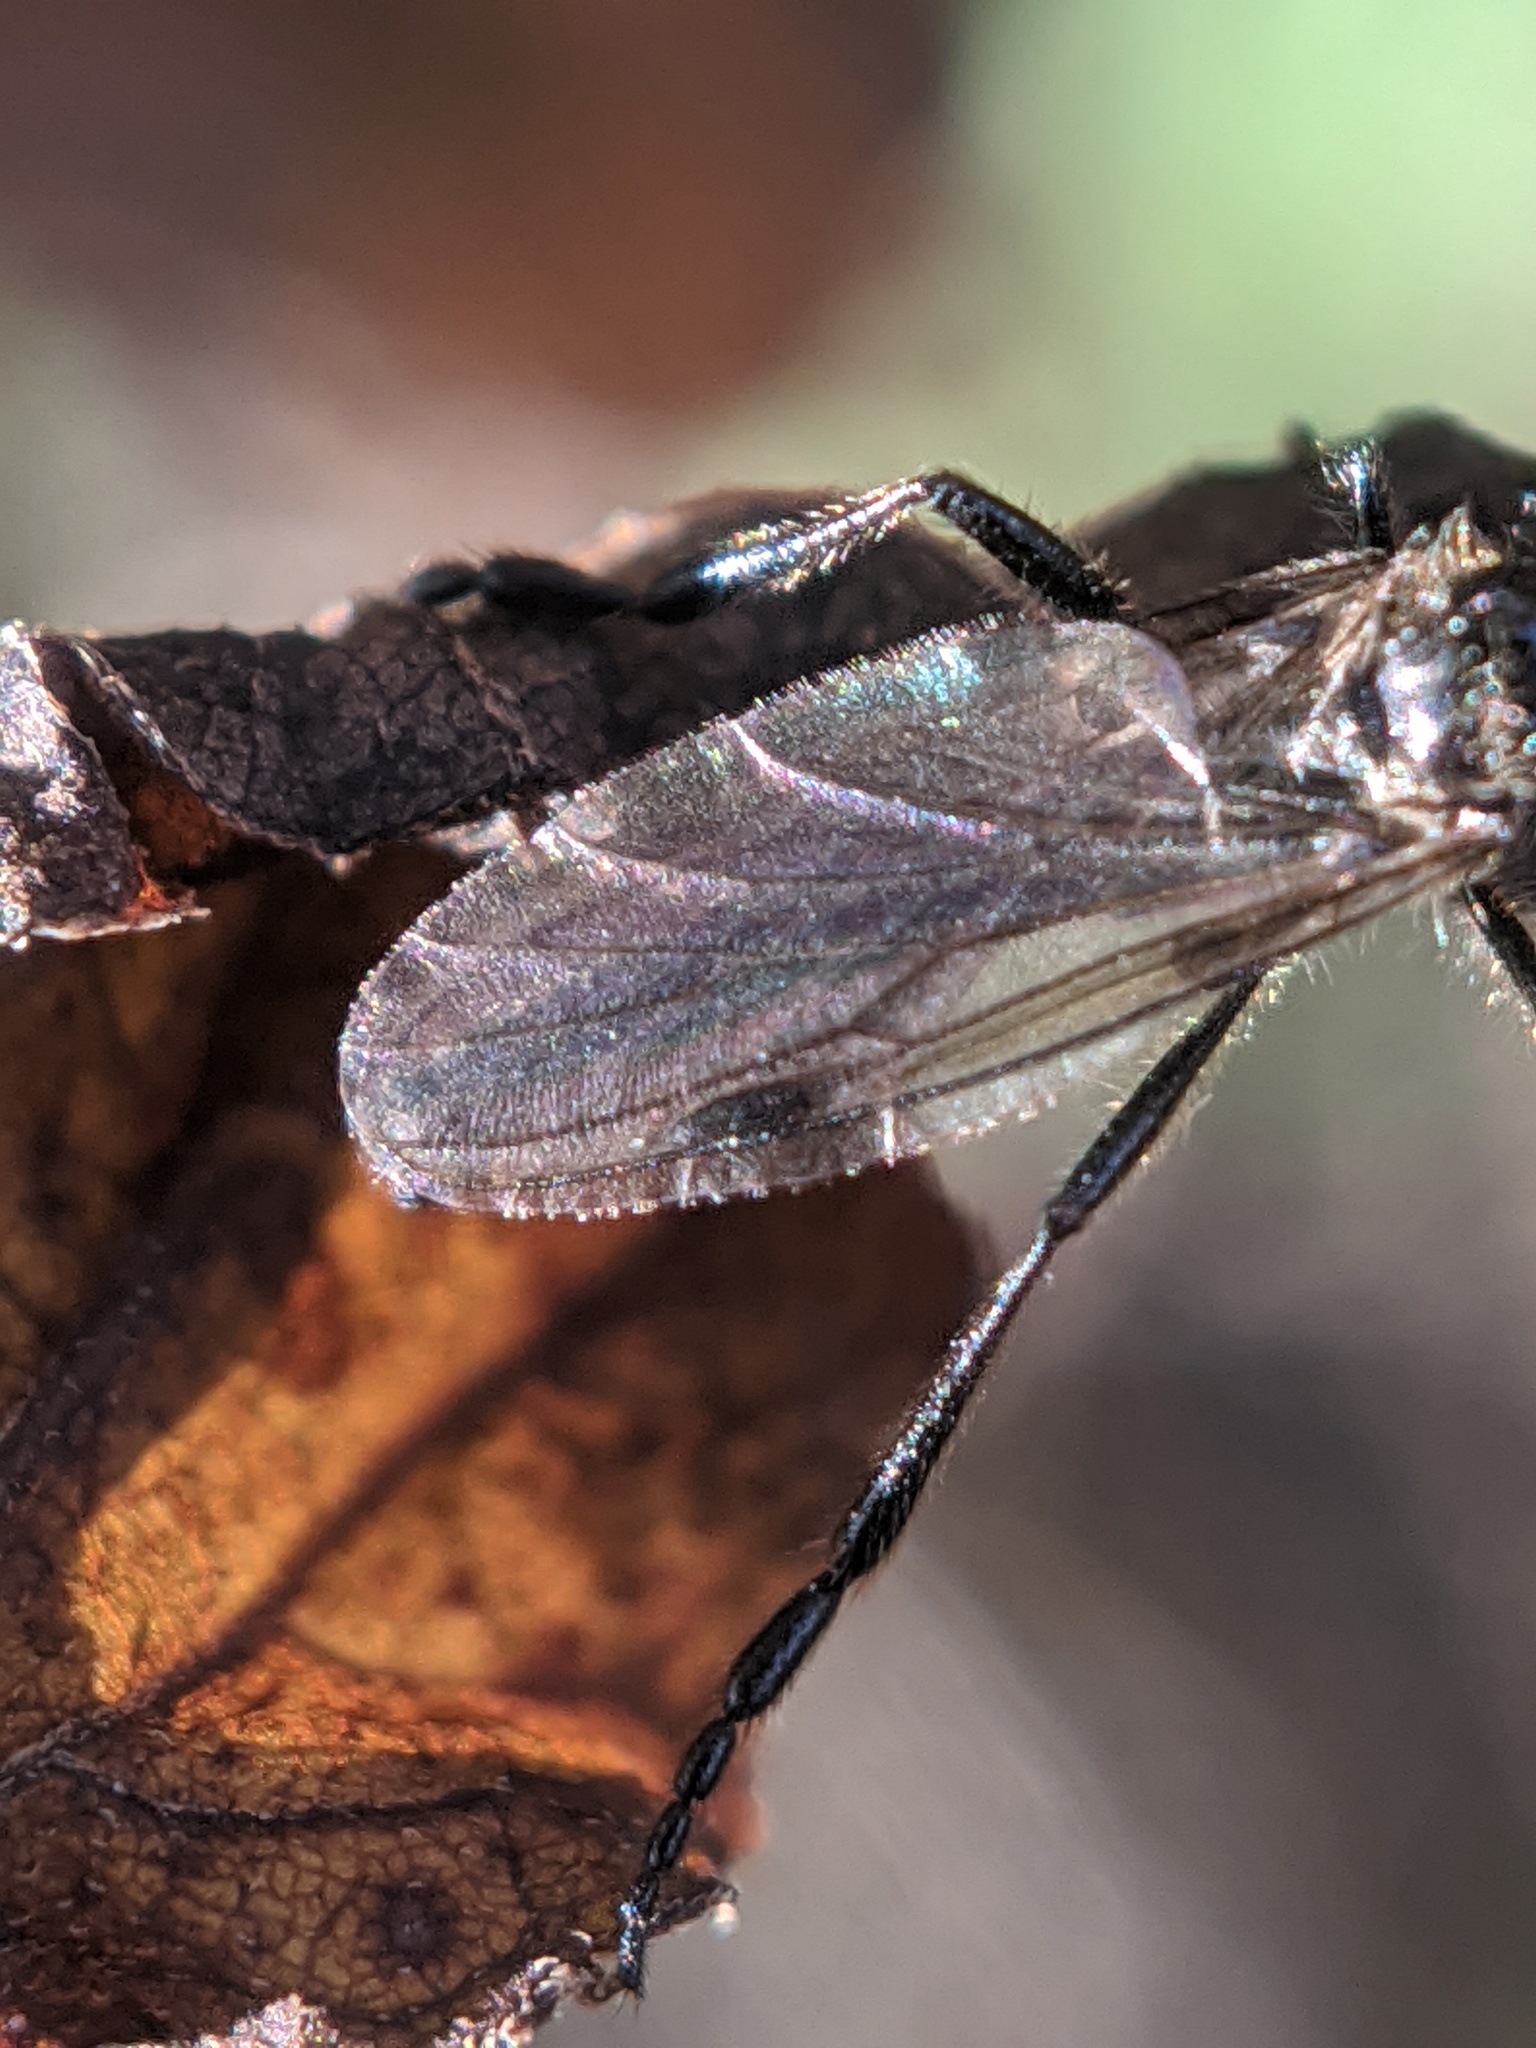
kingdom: Animalia
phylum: Arthropoda
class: Insecta
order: Diptera
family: Bibionidae
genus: Bibio
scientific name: Bibio longipes
